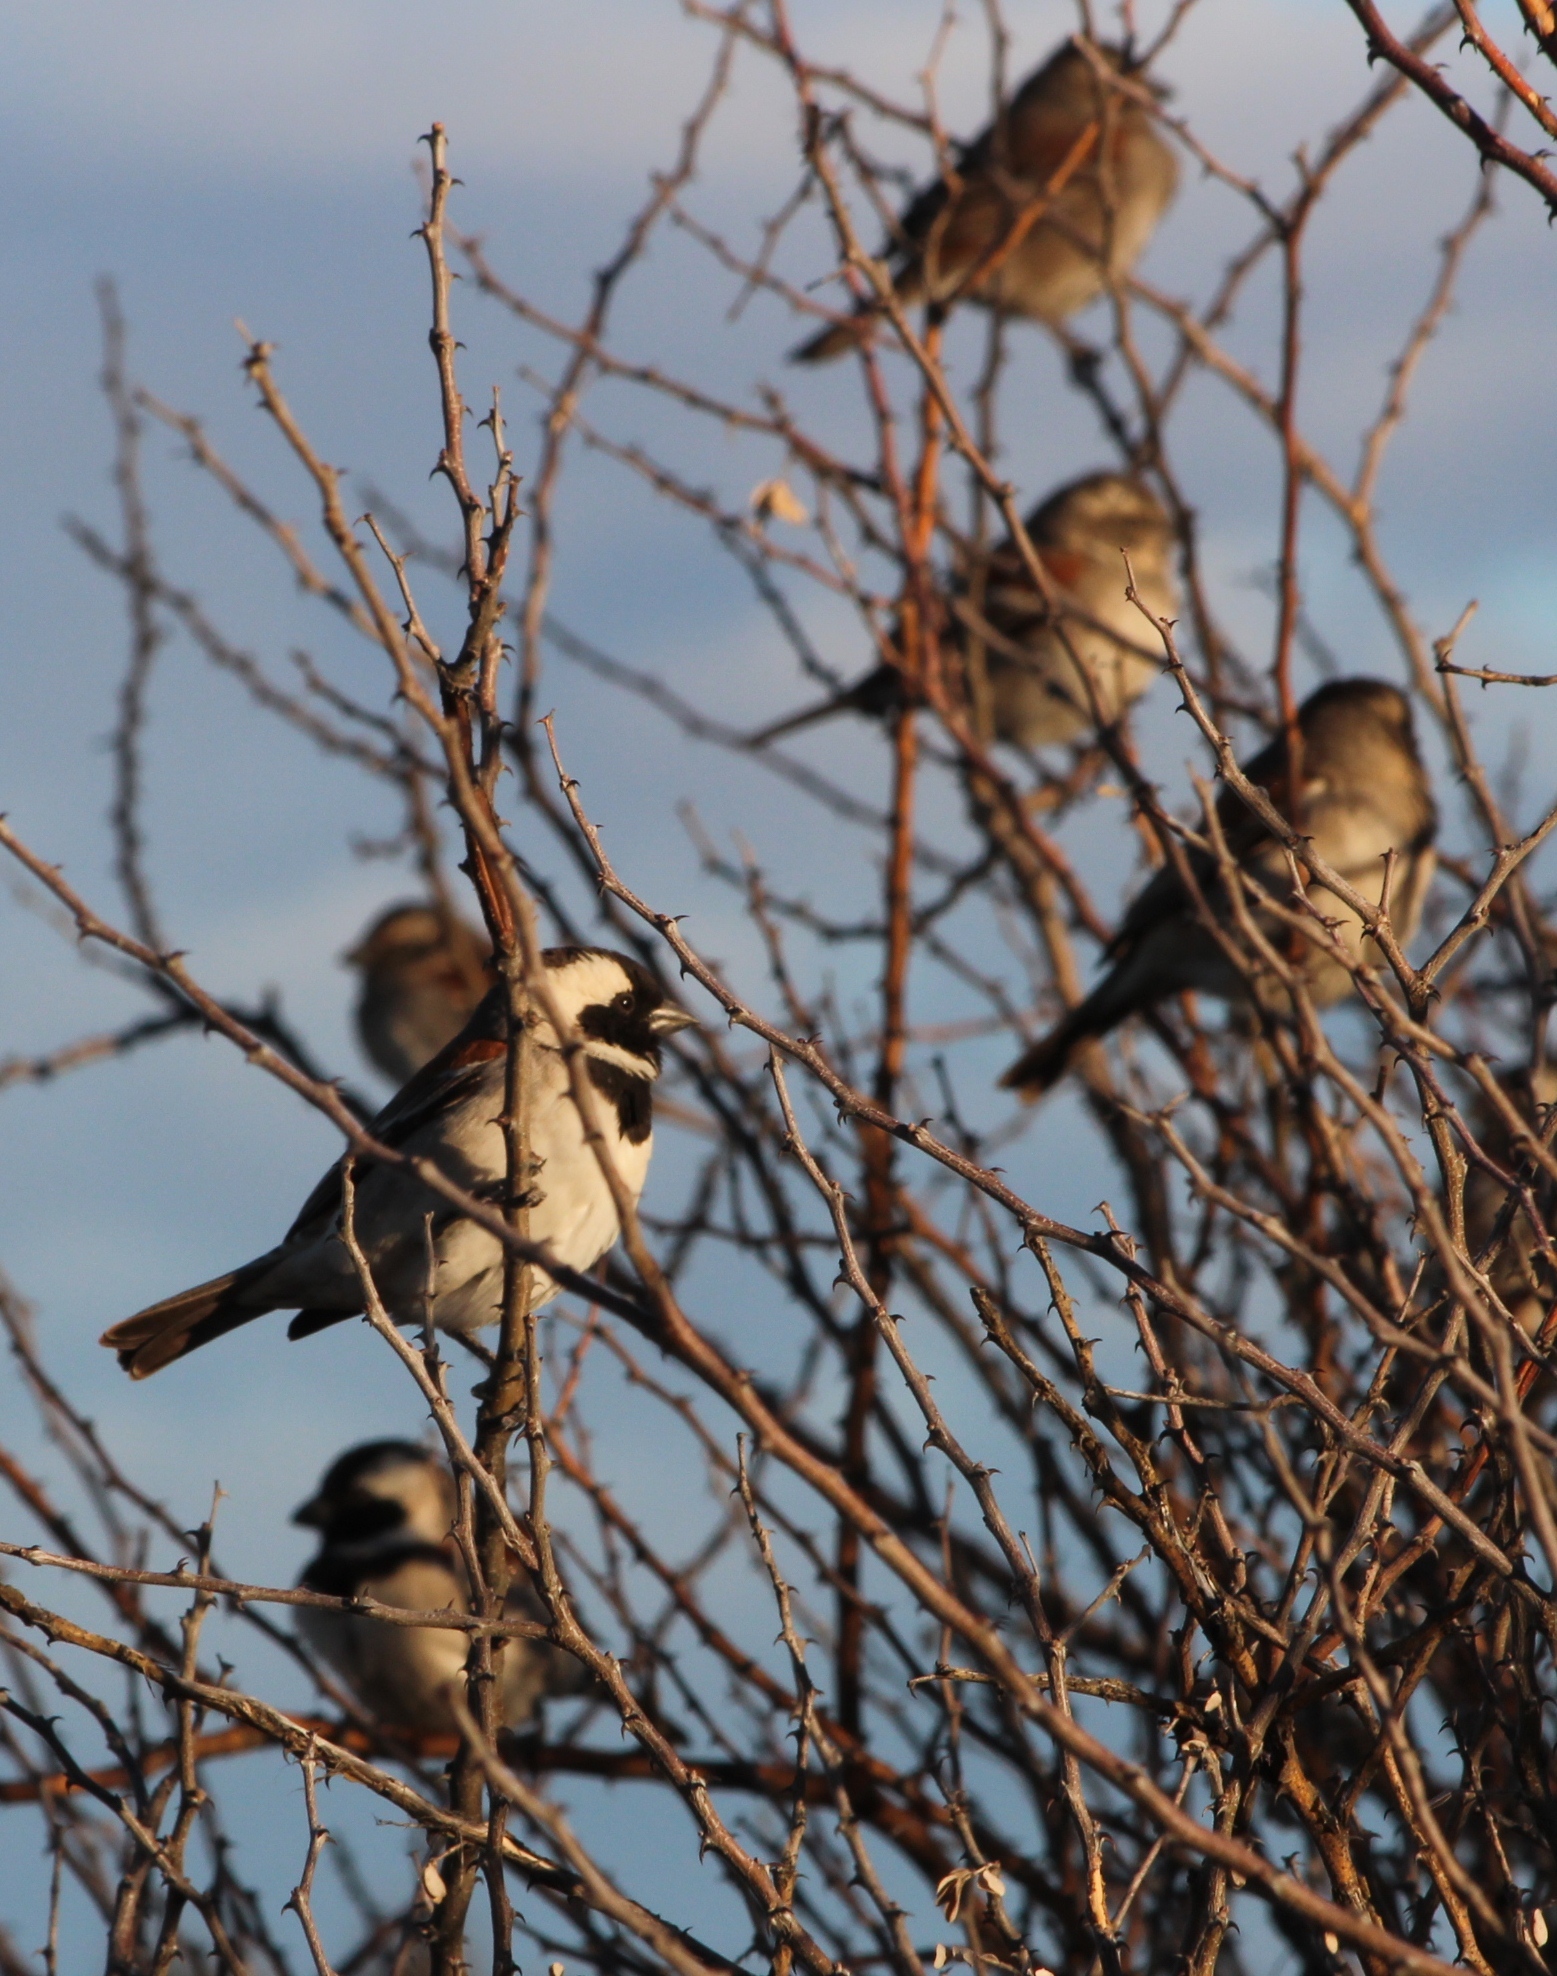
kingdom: Animalia
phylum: Chordata
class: Aves
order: Passeriformes
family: Passeridae
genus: Passer
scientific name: Passer melanurus
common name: Cape sparrow
